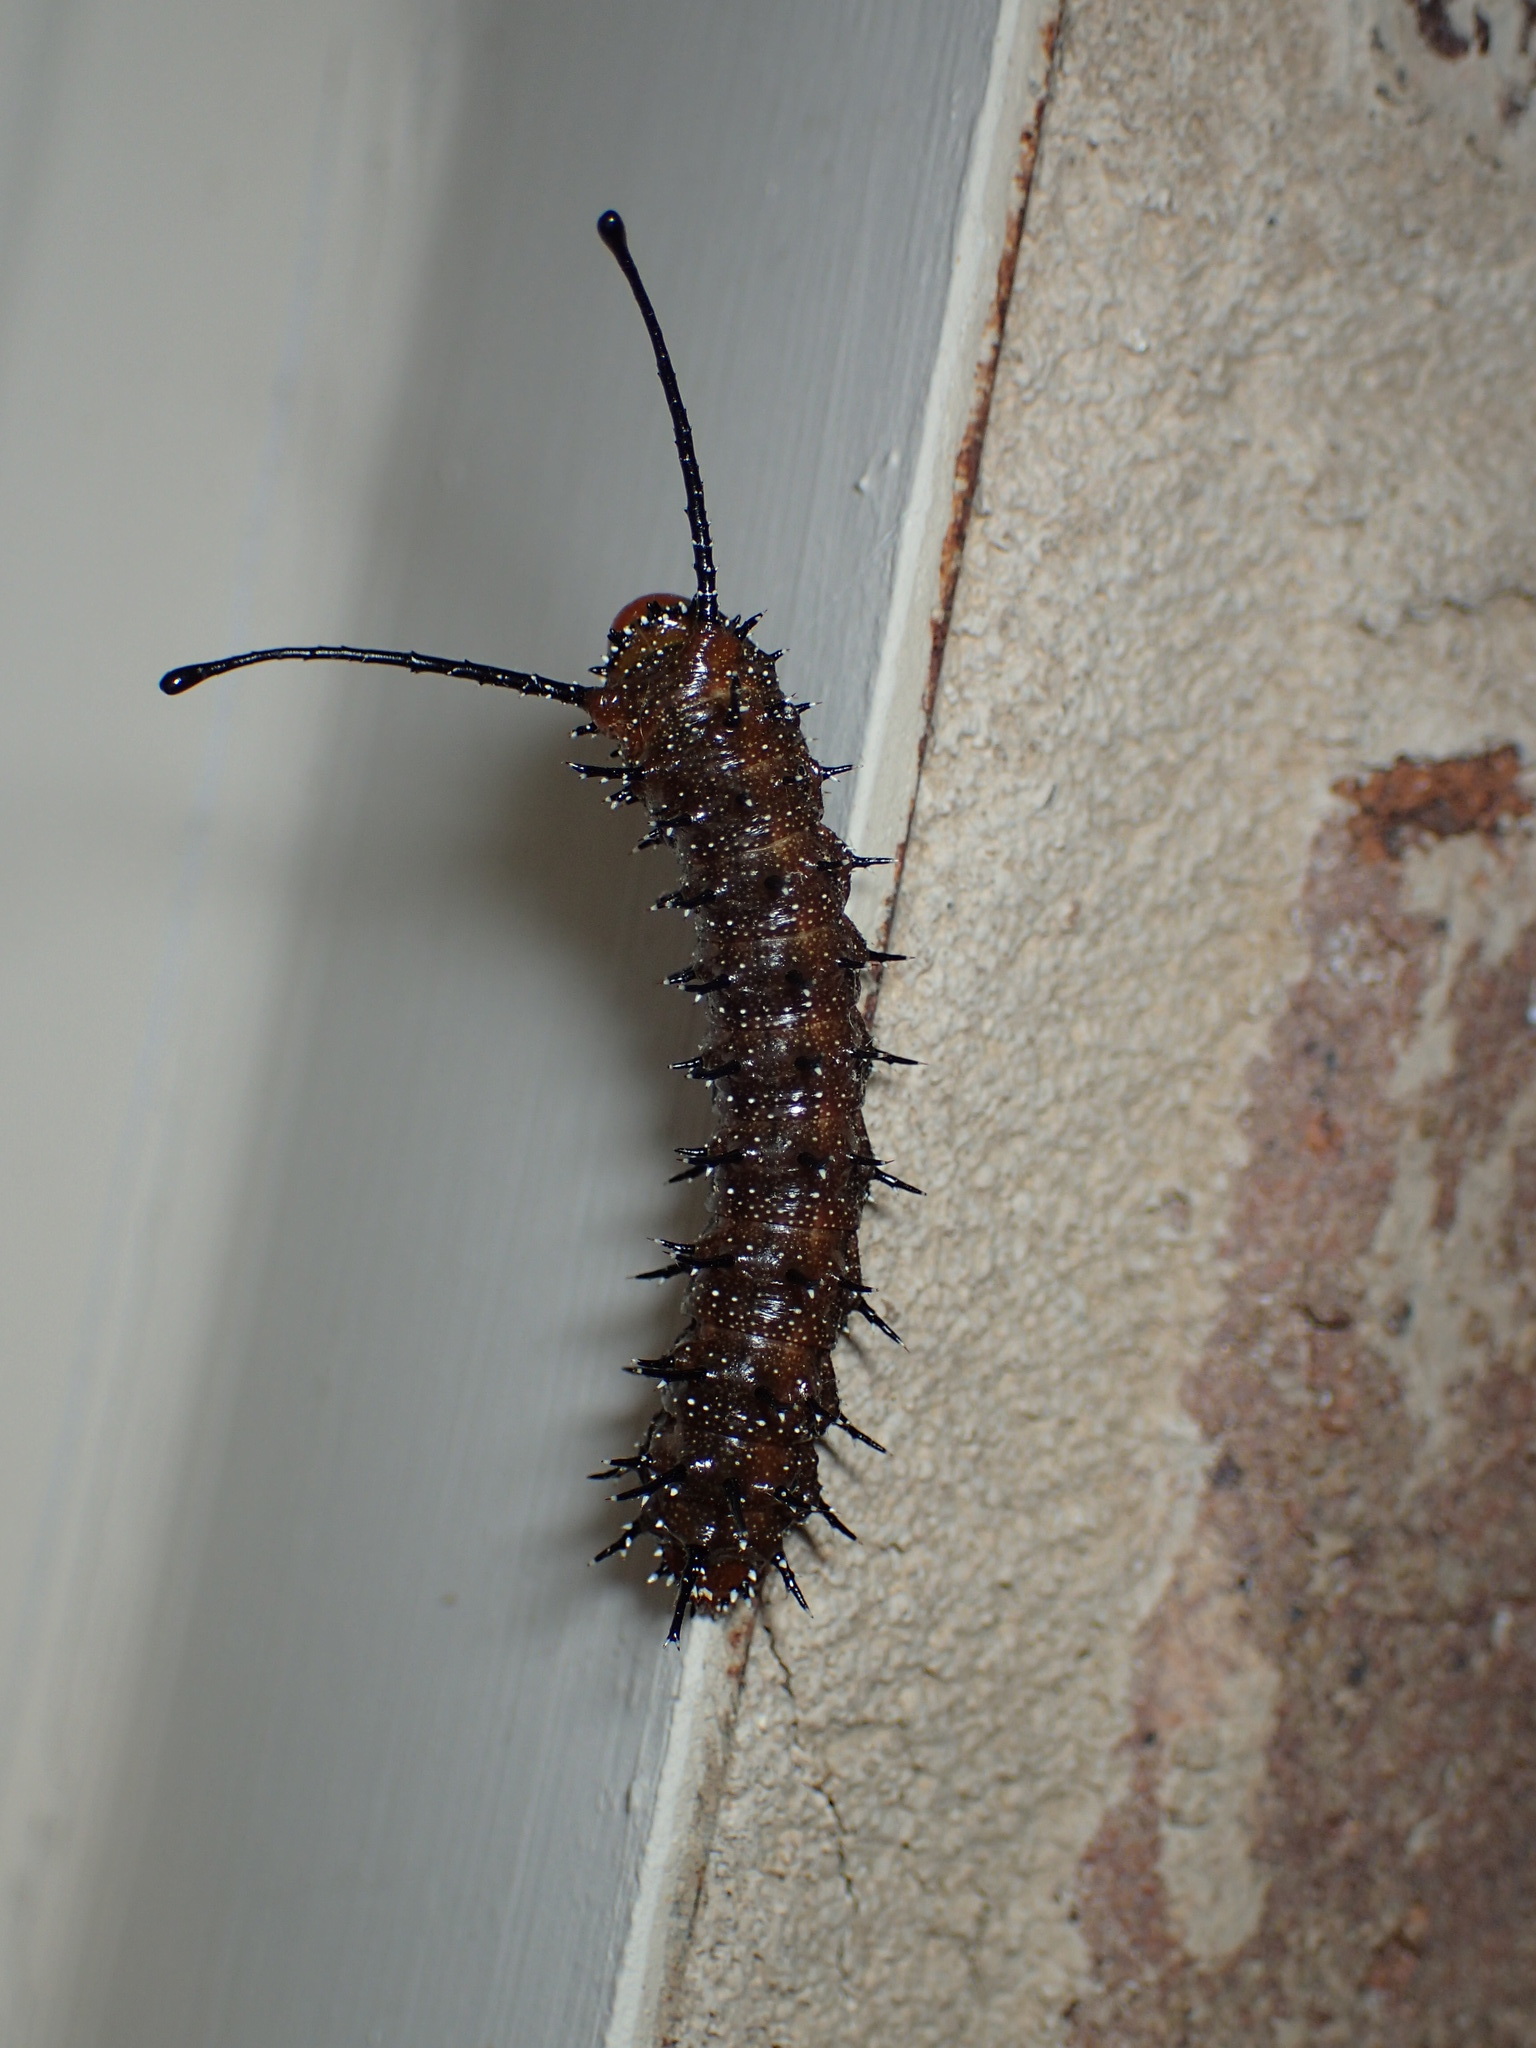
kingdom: Animalia
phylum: Arthropoda
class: Insecta
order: Lepidoptera
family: Saturniidae
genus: Anisota
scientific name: Anisota stigma
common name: Spiny oakworm moth
